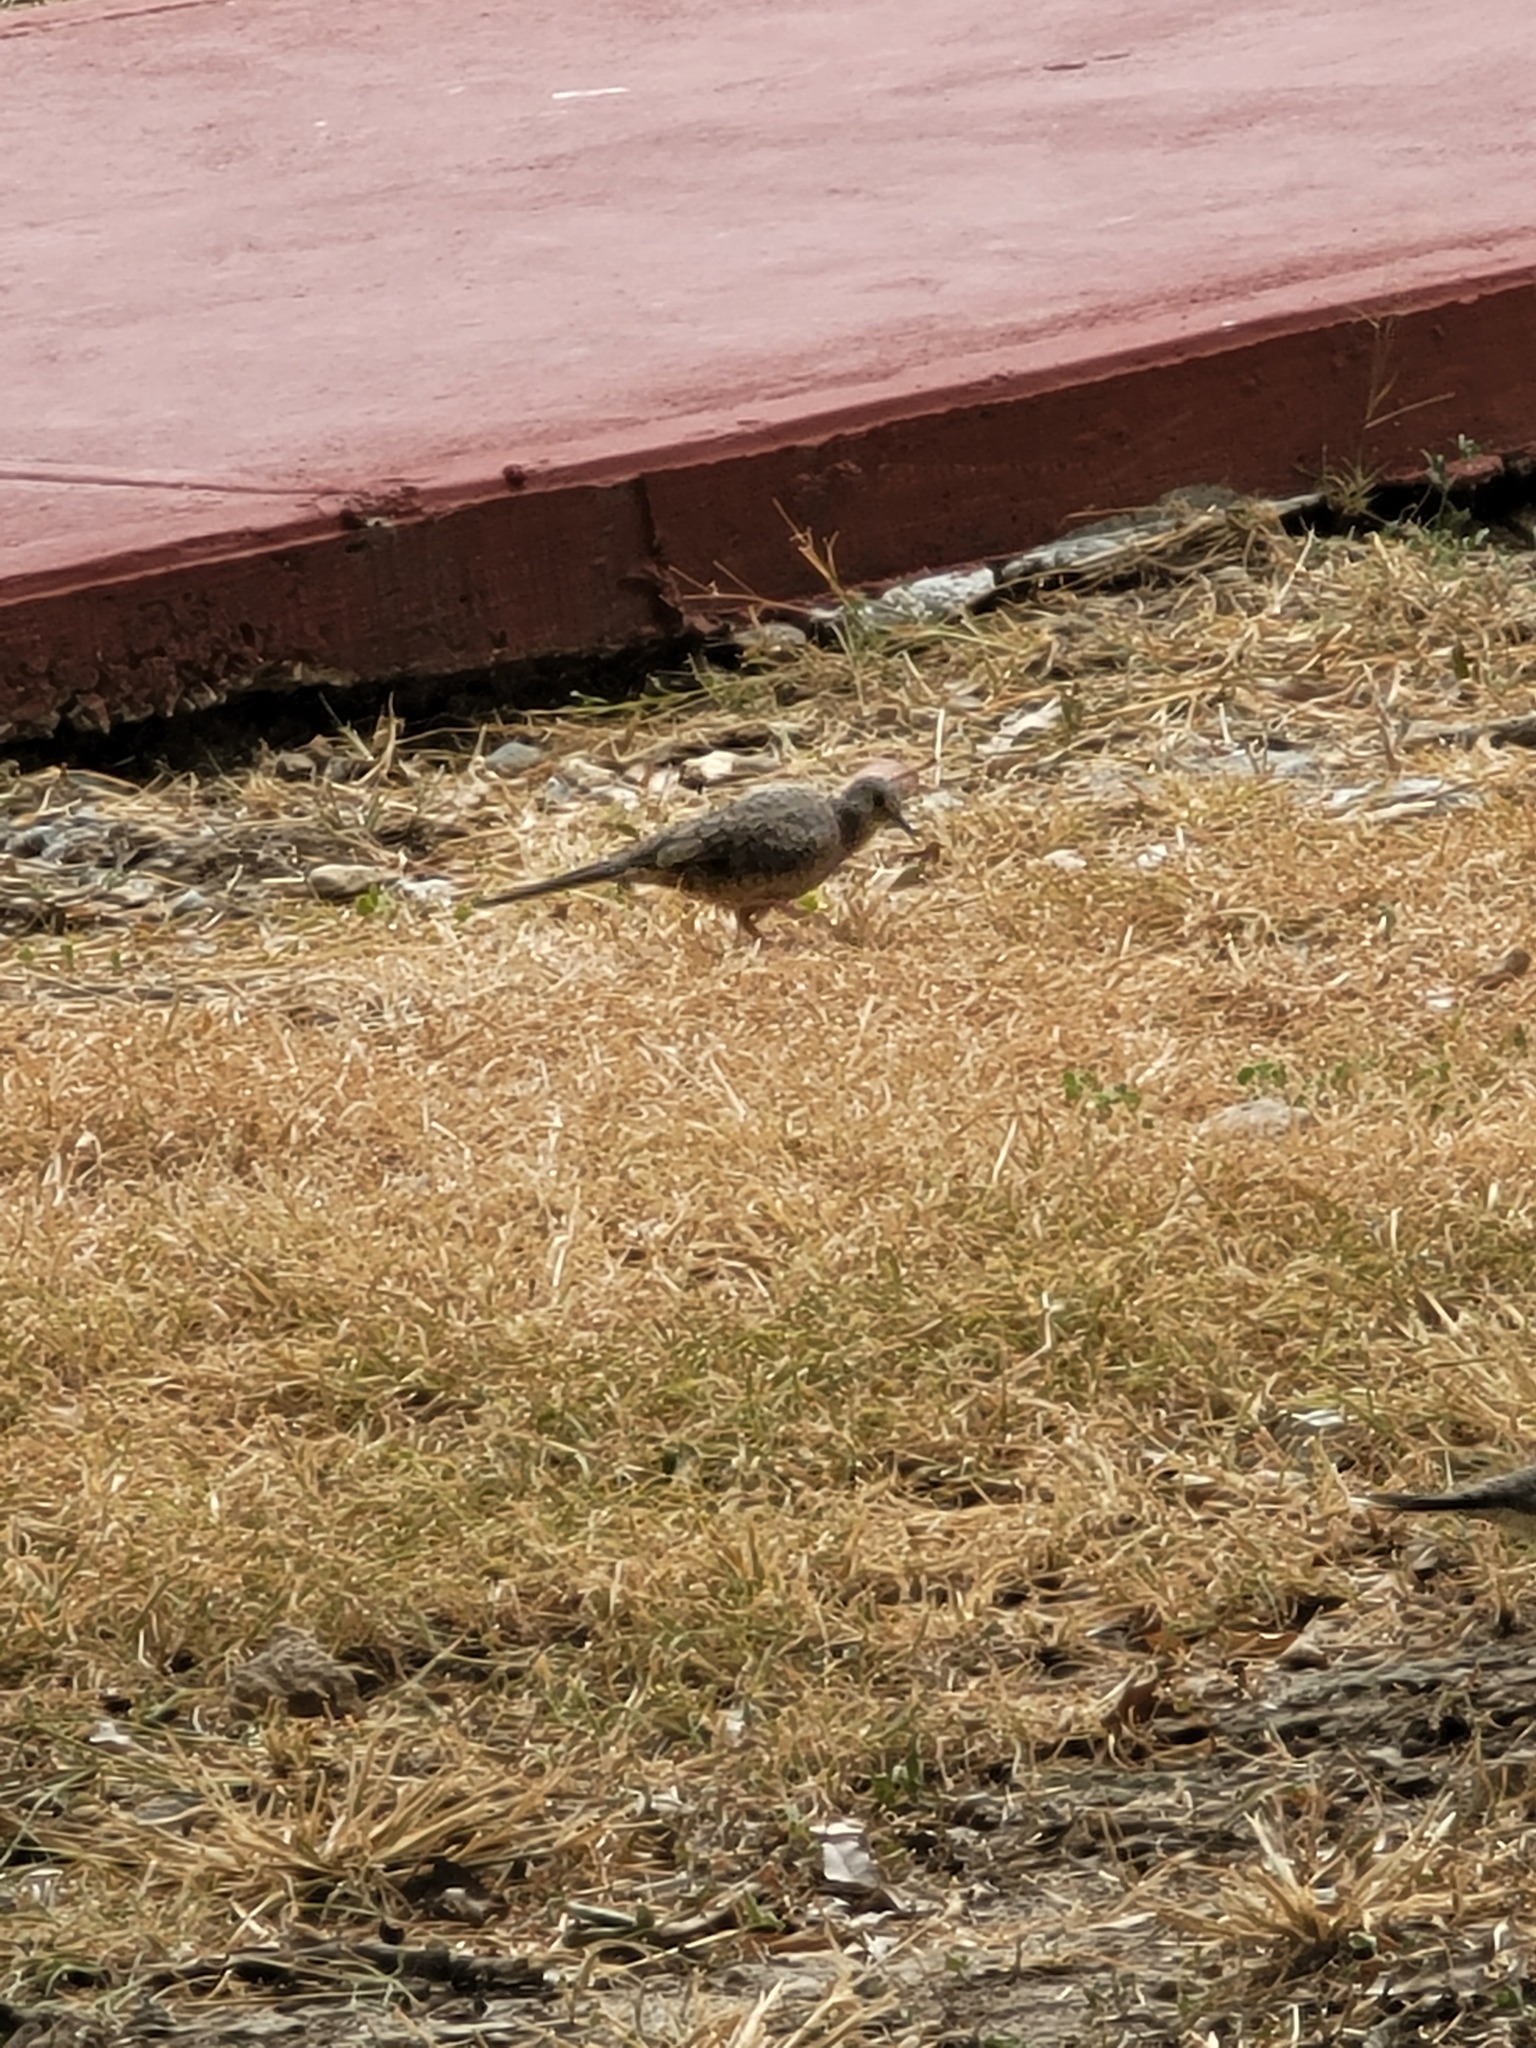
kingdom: Animalia
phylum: Chordata
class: Aves
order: Columbiformes
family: Columbidae
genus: Columbina
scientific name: Columbina inca
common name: Inca dove
